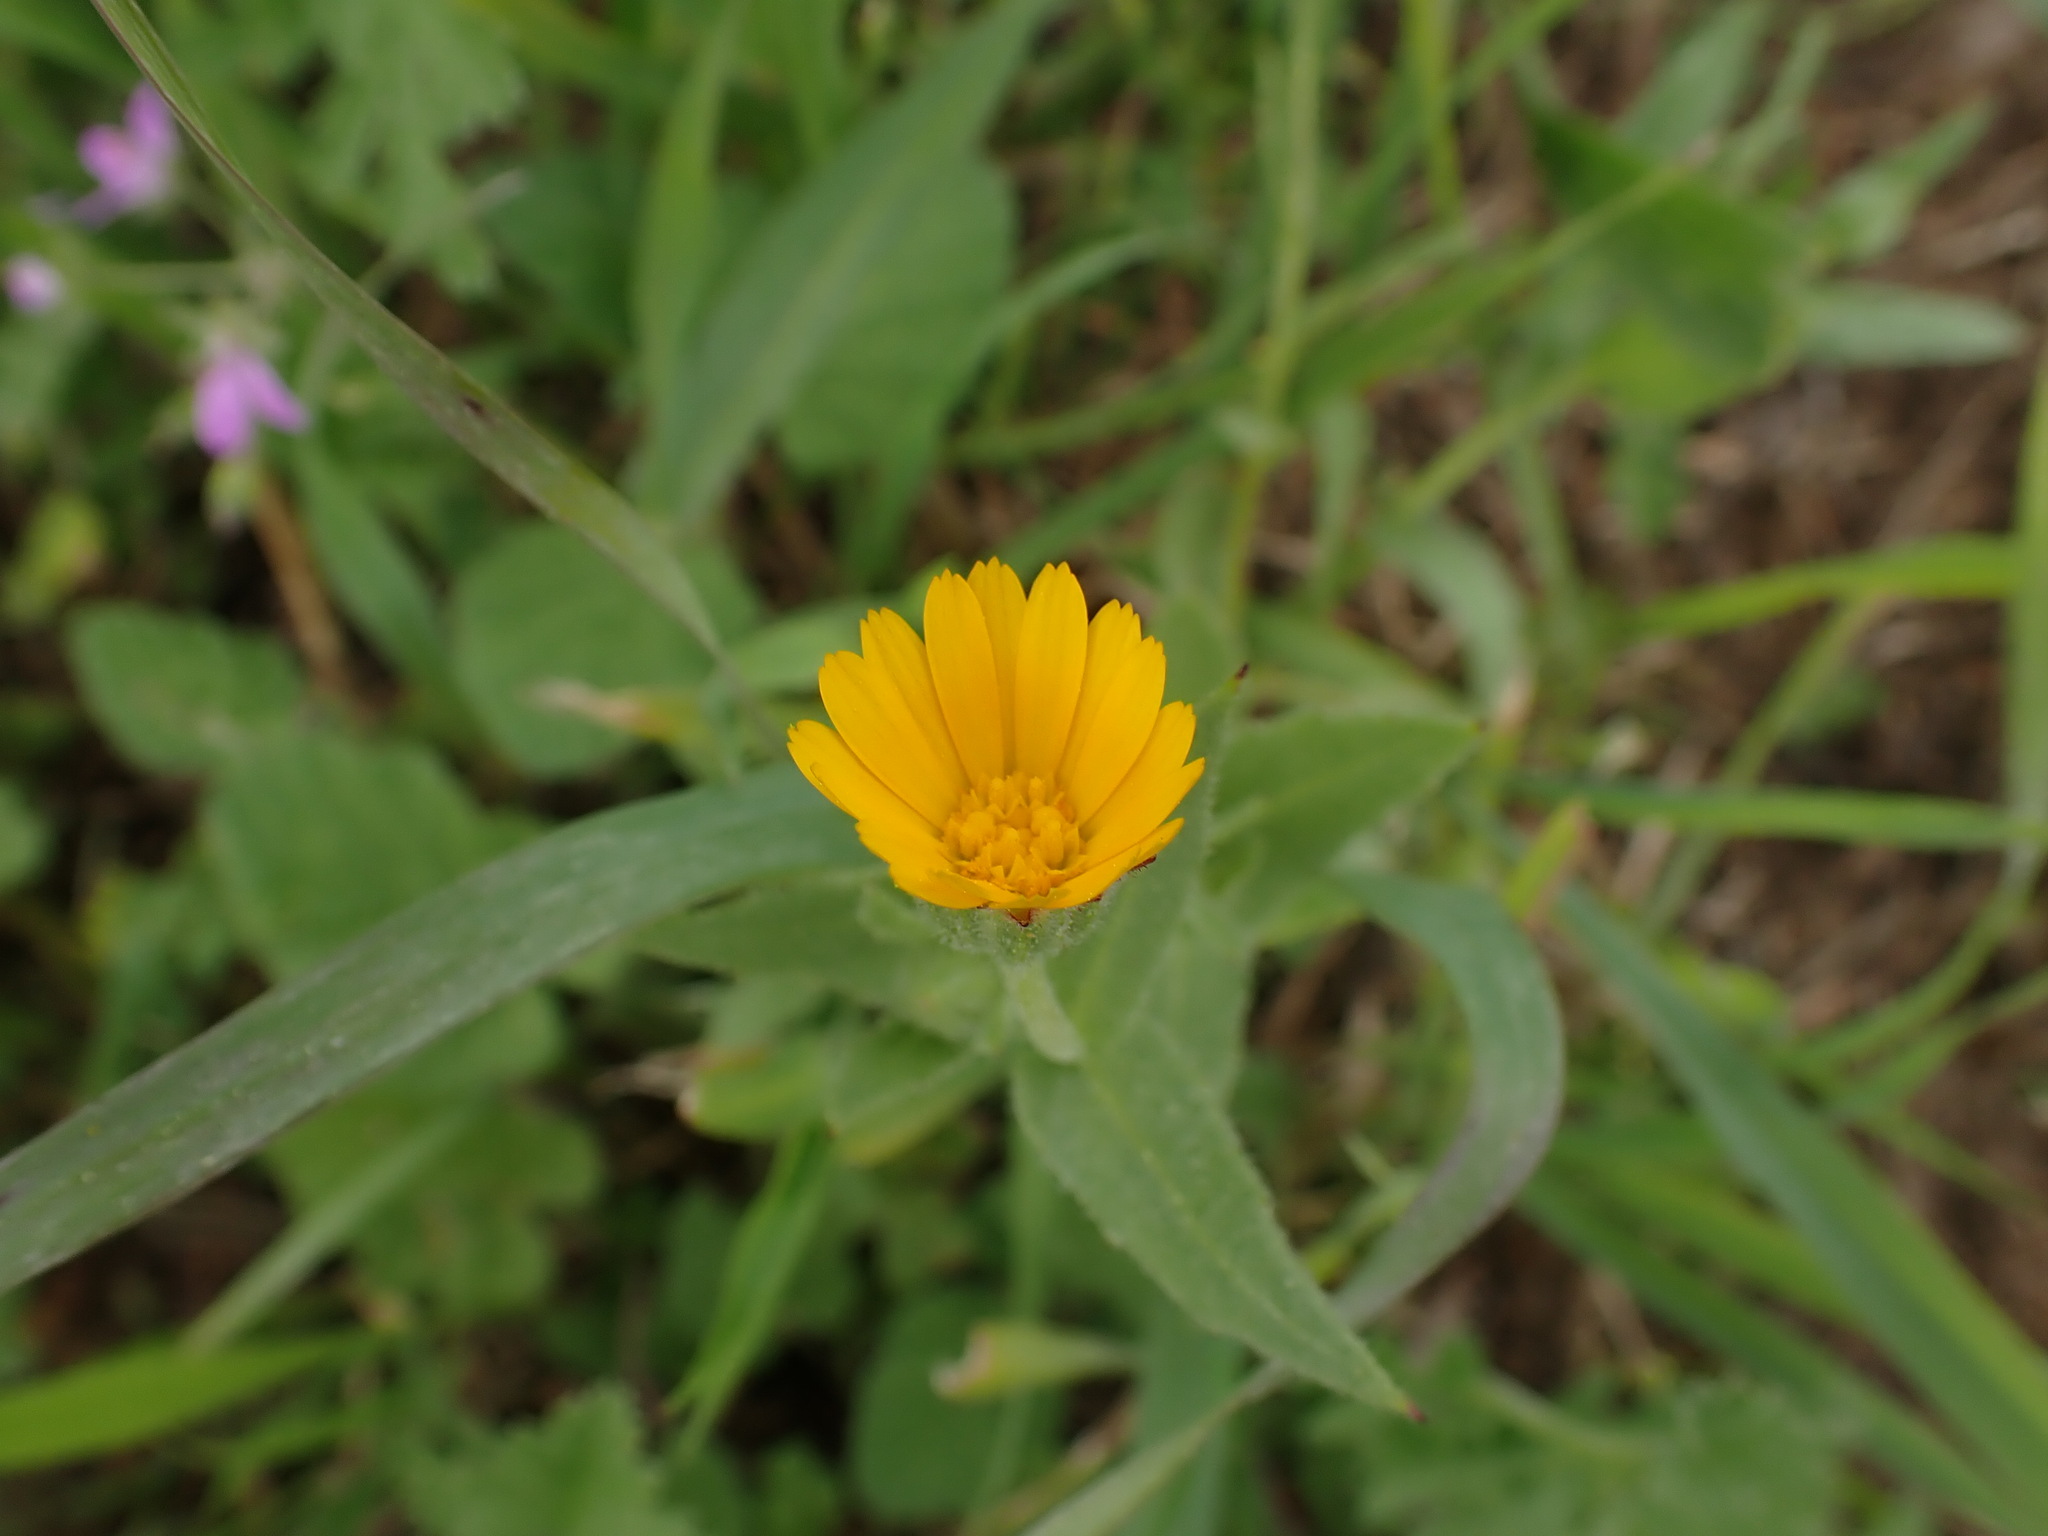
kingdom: Plantae
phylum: Tracheophyta
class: Magnoliopsida
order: Asterales
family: Asteraceae
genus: Calendula
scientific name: Calendula arvensis
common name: Field marigold
